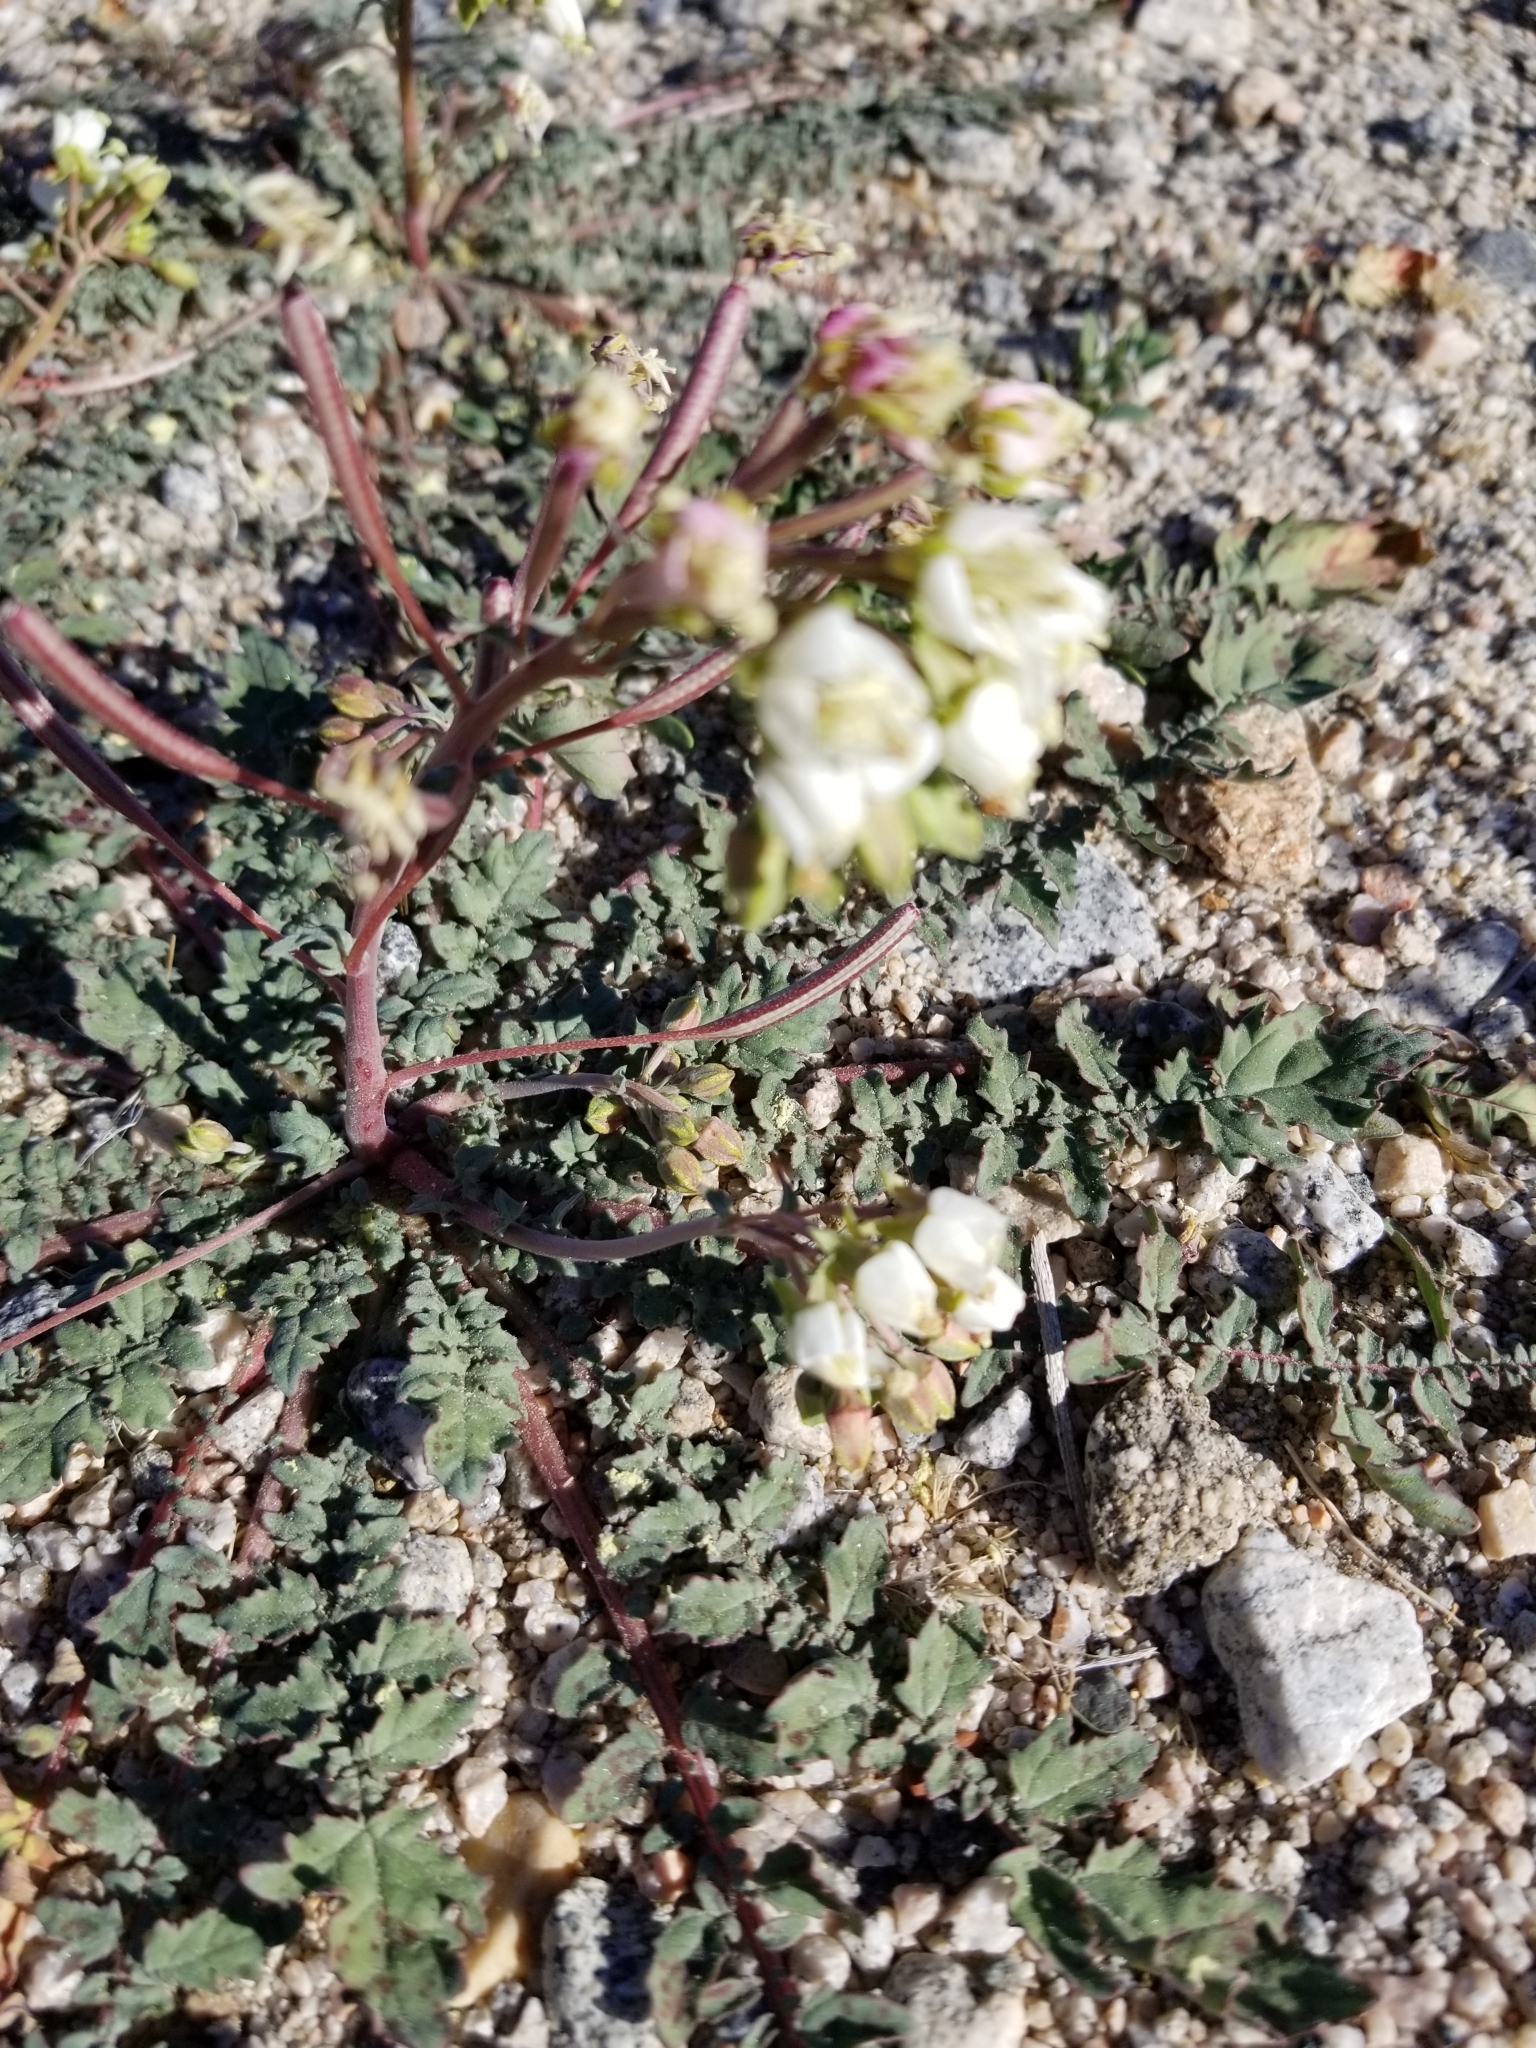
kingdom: Plantae
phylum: Tracheophyta
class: Magnoliopsida
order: Myrtales
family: Onagraceae
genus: Chylismia
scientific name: Chylismia claviformis
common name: Browneyes
